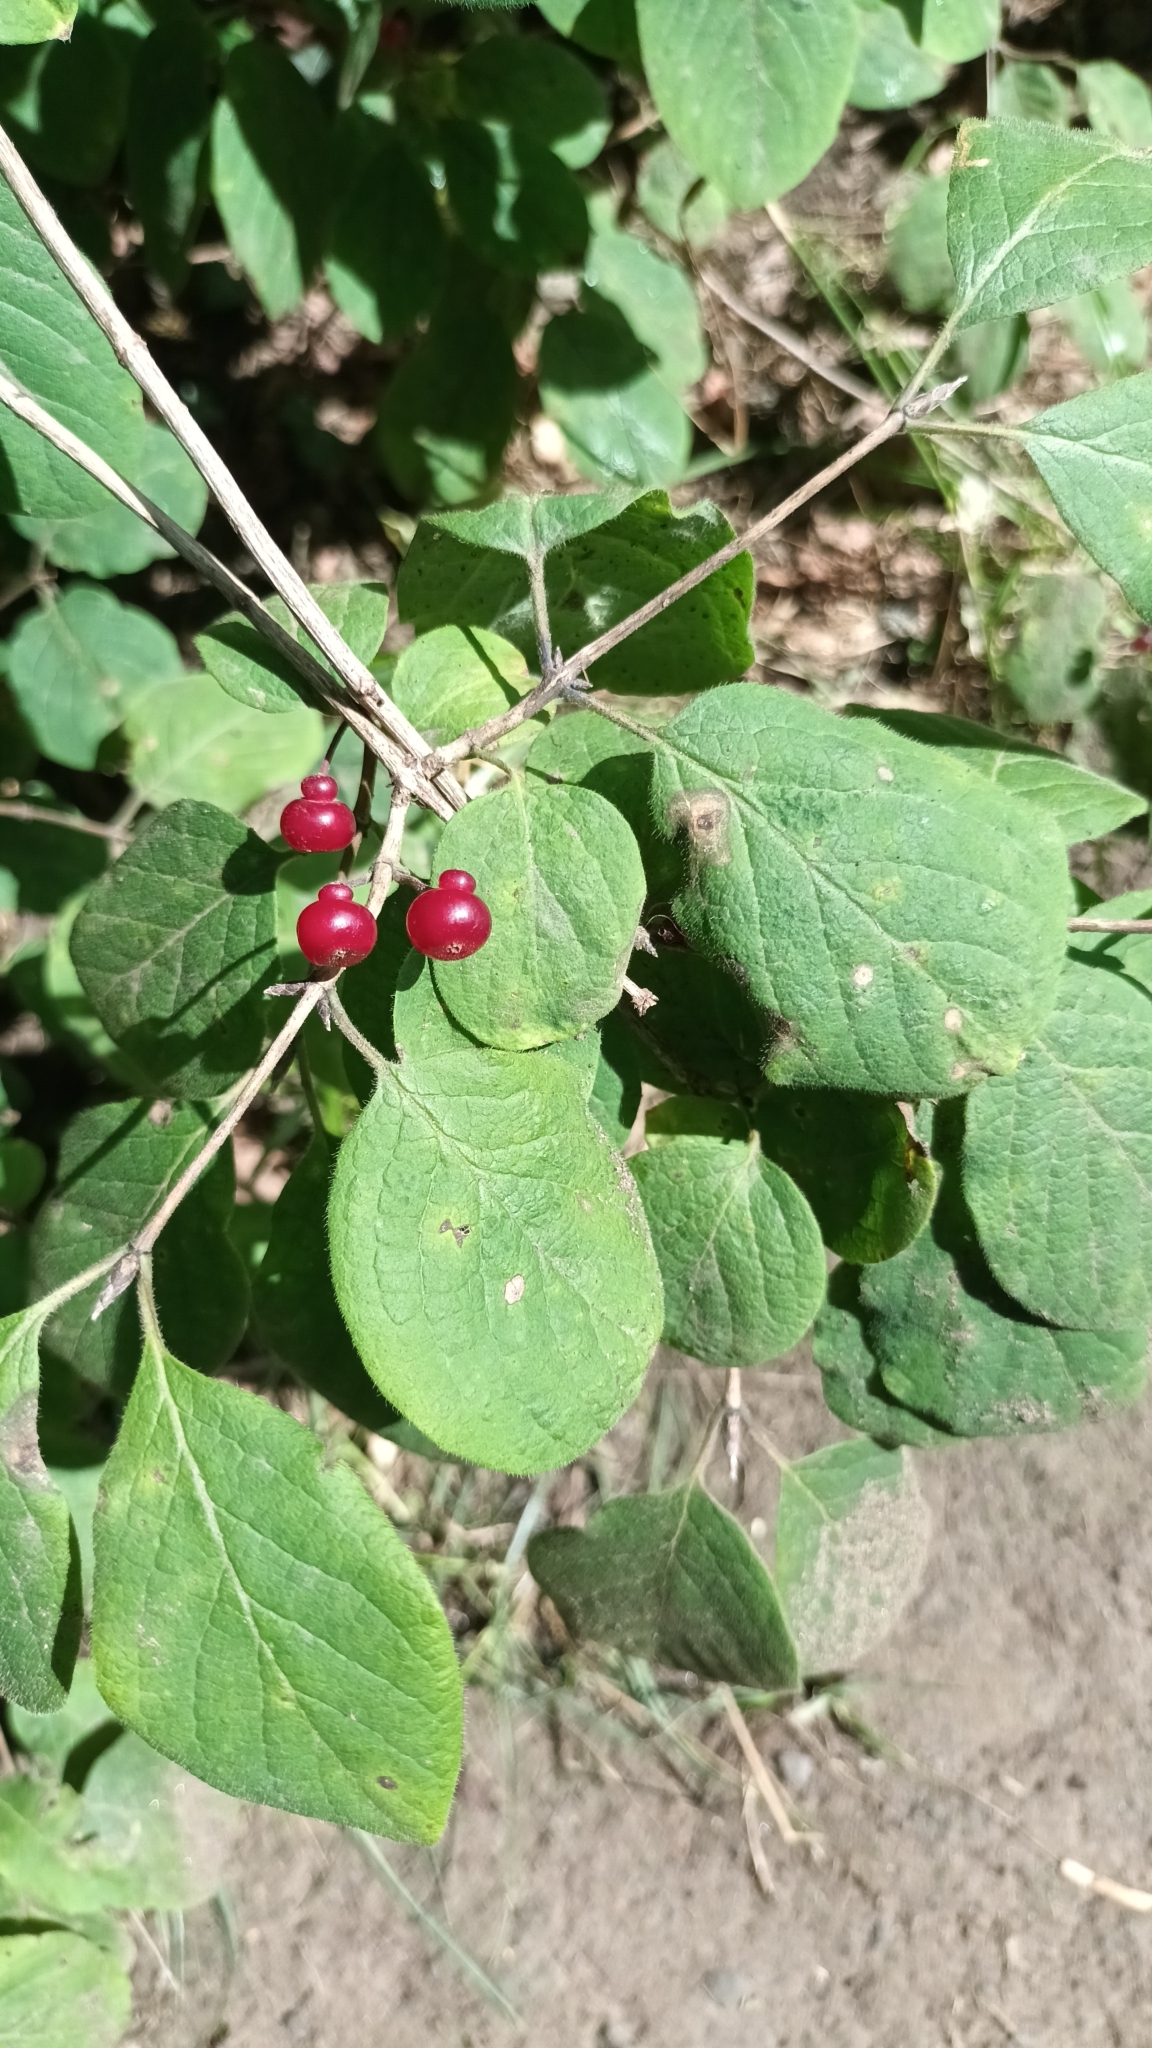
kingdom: Plantae
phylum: Tracheophyta
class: Magnoliopsida
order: Dipsacales
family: Caprifoliaceae
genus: Lonicera
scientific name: Lonicera xylosteum
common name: Fly honeysuckle
